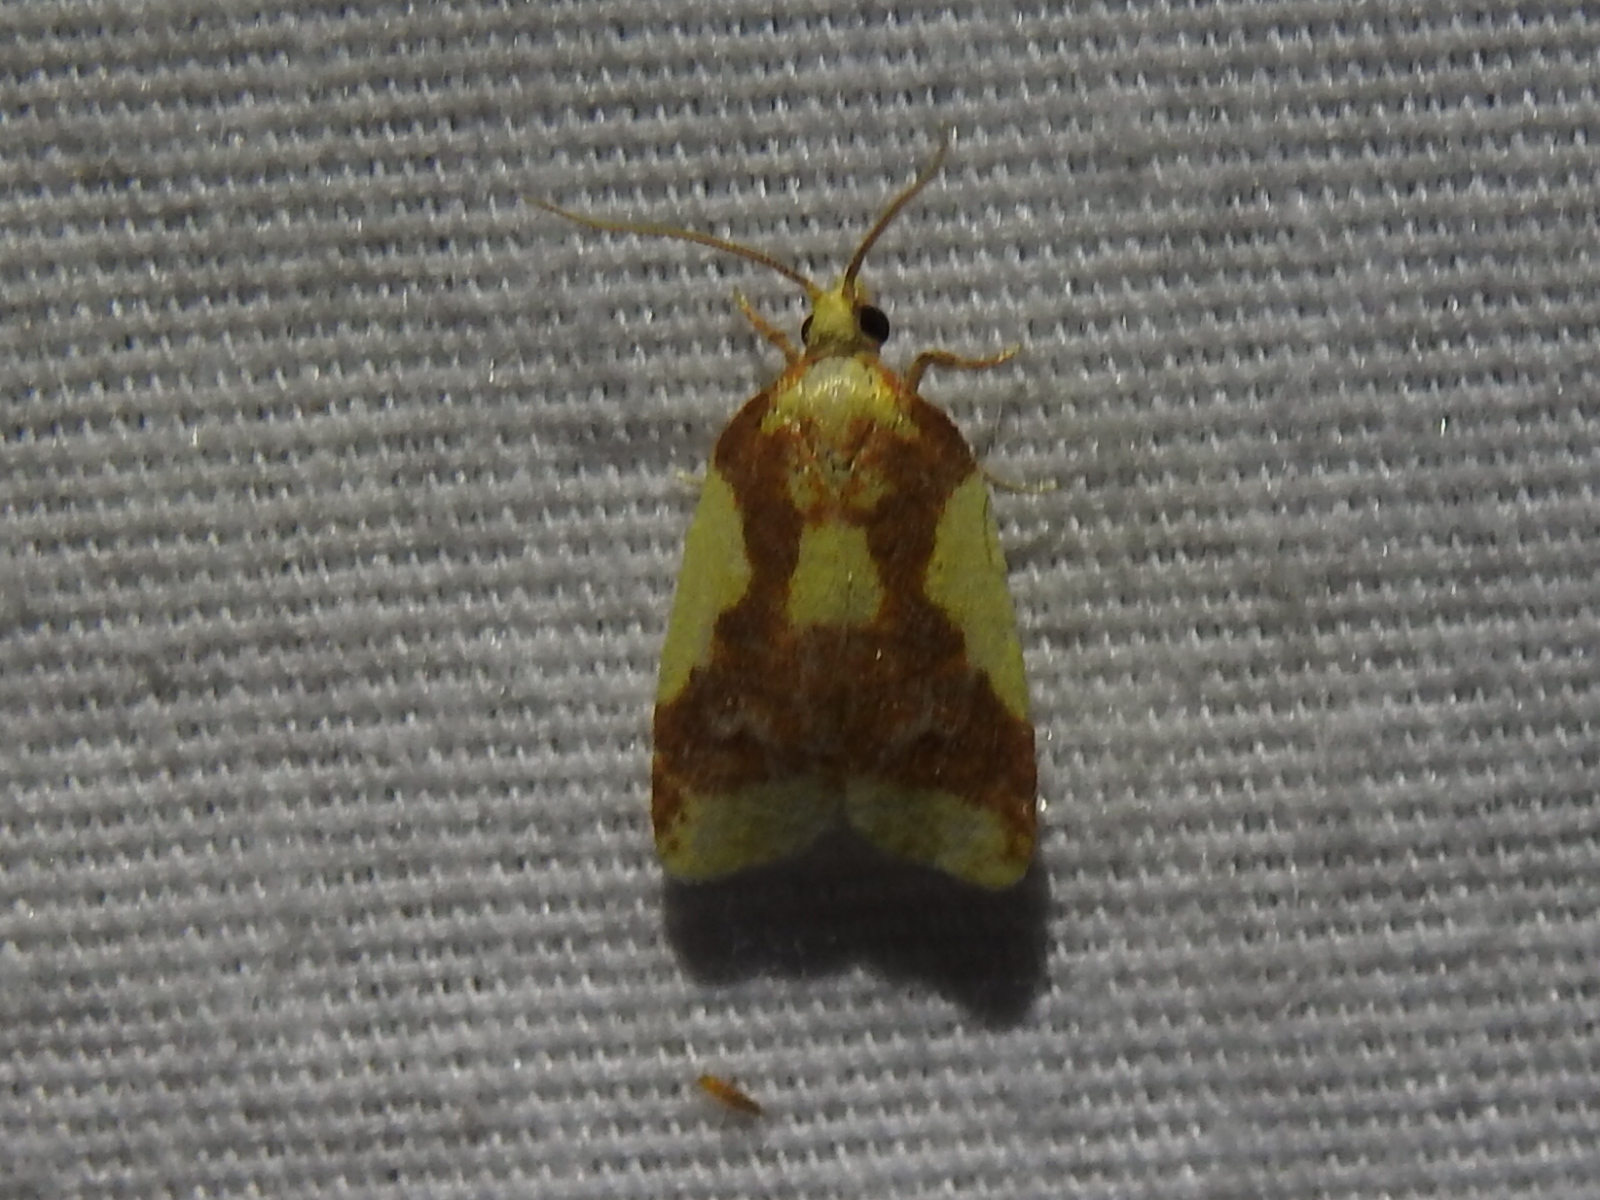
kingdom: Animalia
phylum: Arthropoda
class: Insecta
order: Lepidoptera
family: Tortricidae
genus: Sparganothis
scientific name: Sparganothis pulcherrimana
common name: Beautiful sparganothis
